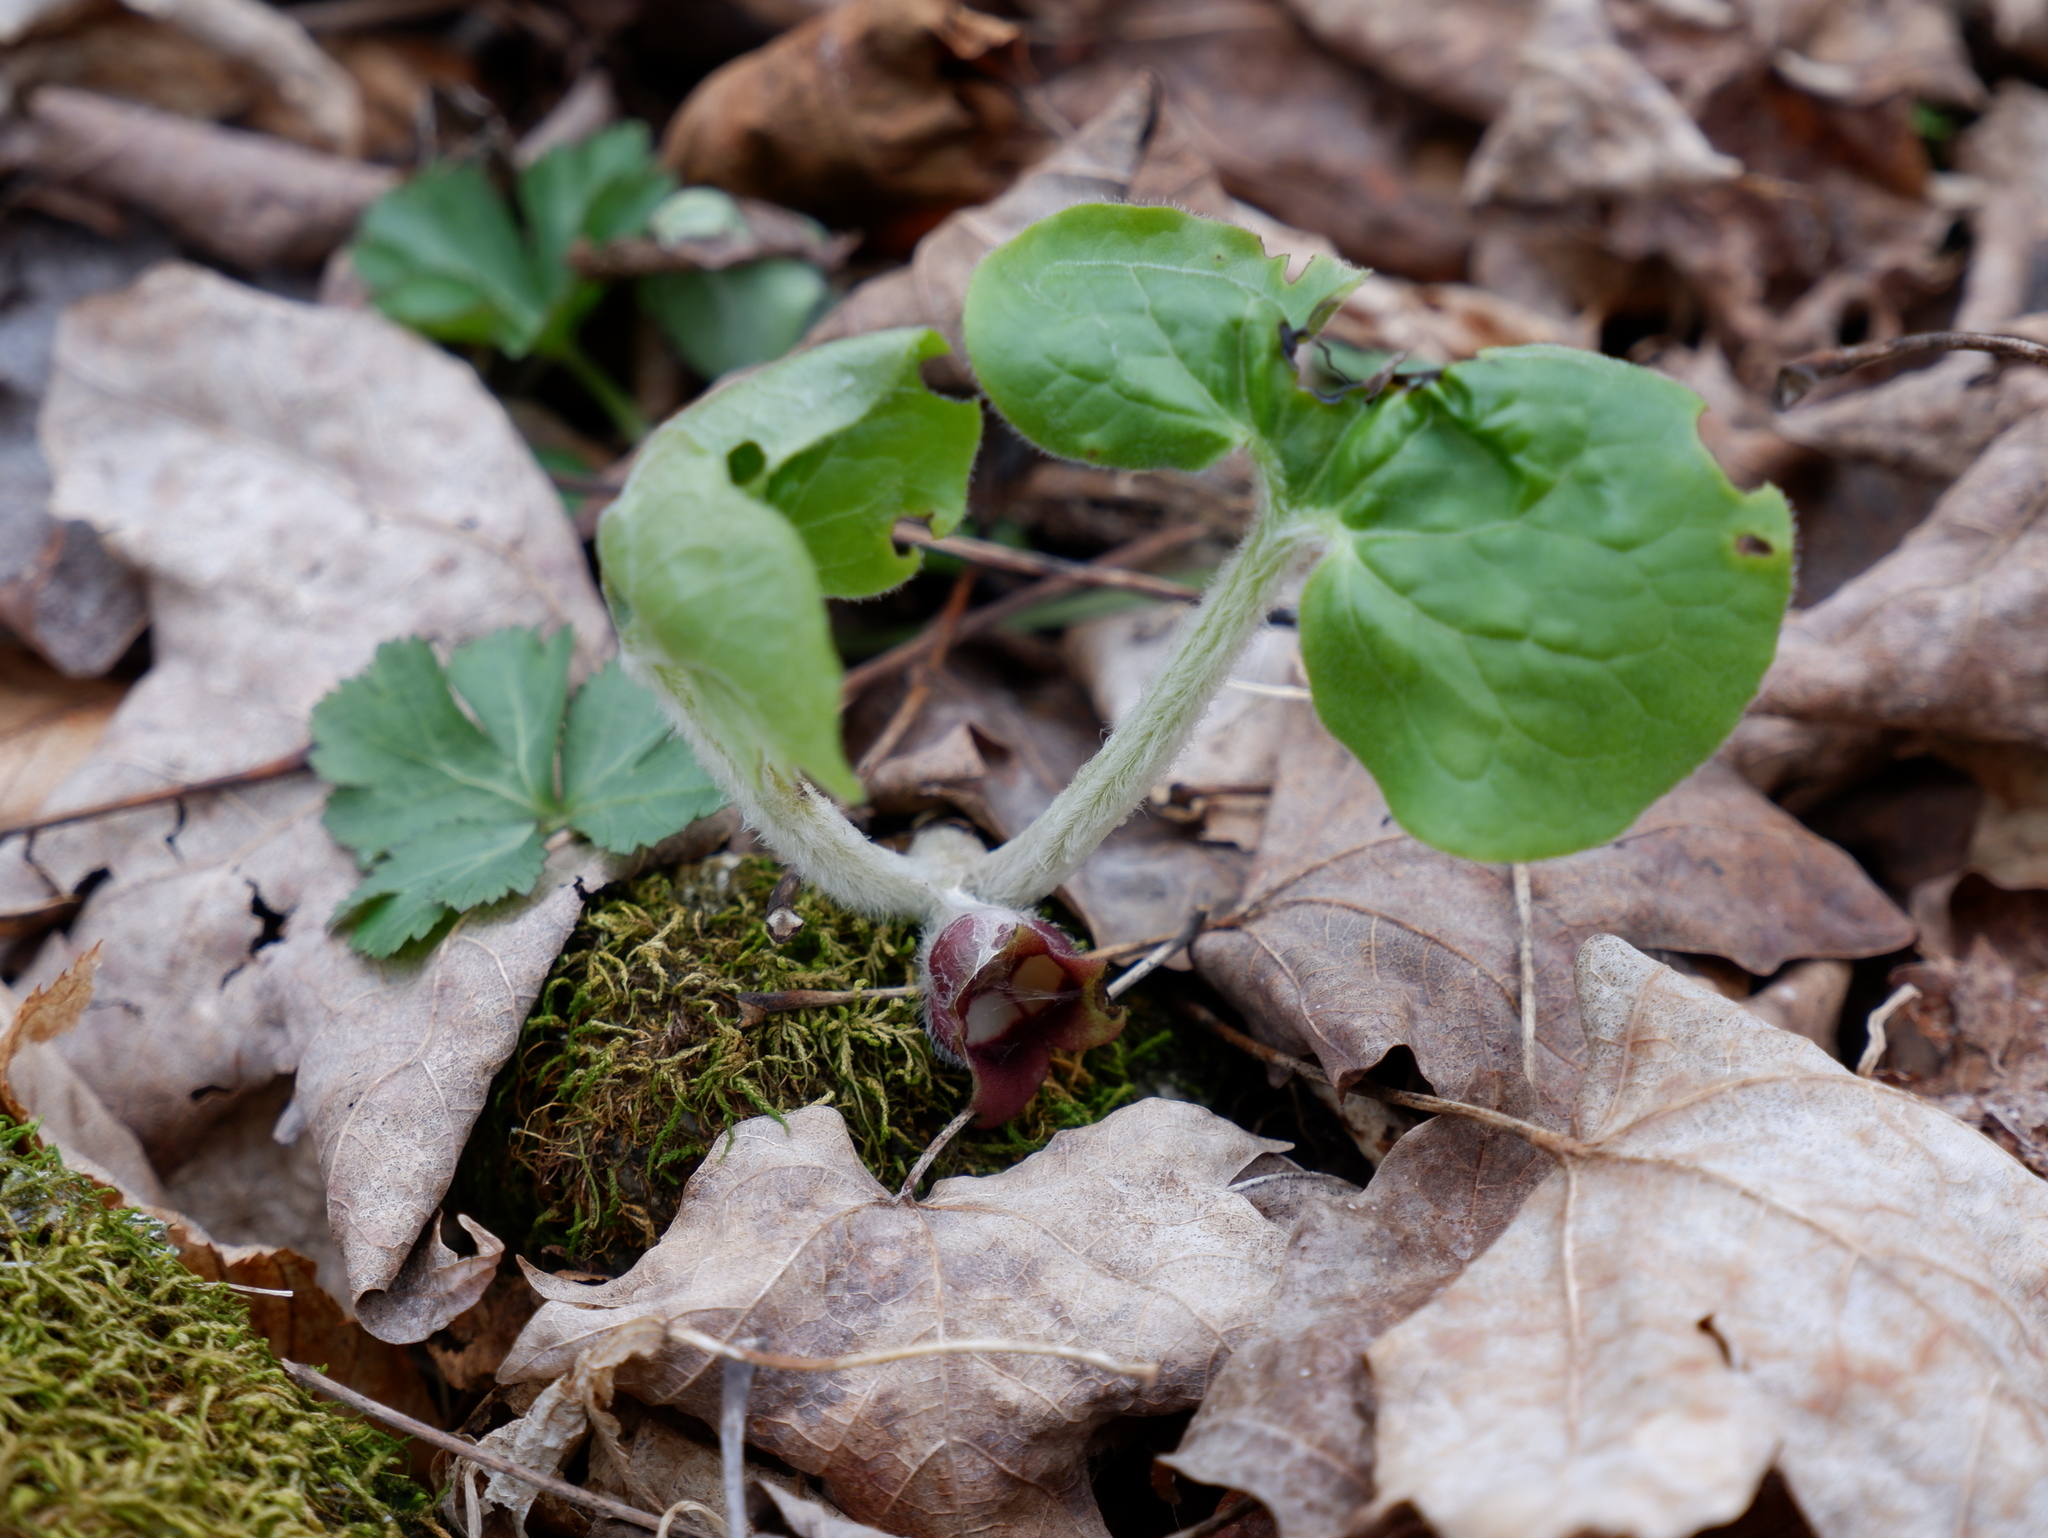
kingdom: Plantae
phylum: Tracheophyta
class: Magnoliopsida
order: Piperales
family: Aristolochiaceae
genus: Asarum
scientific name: Asarum canadense
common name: Wild ginger
